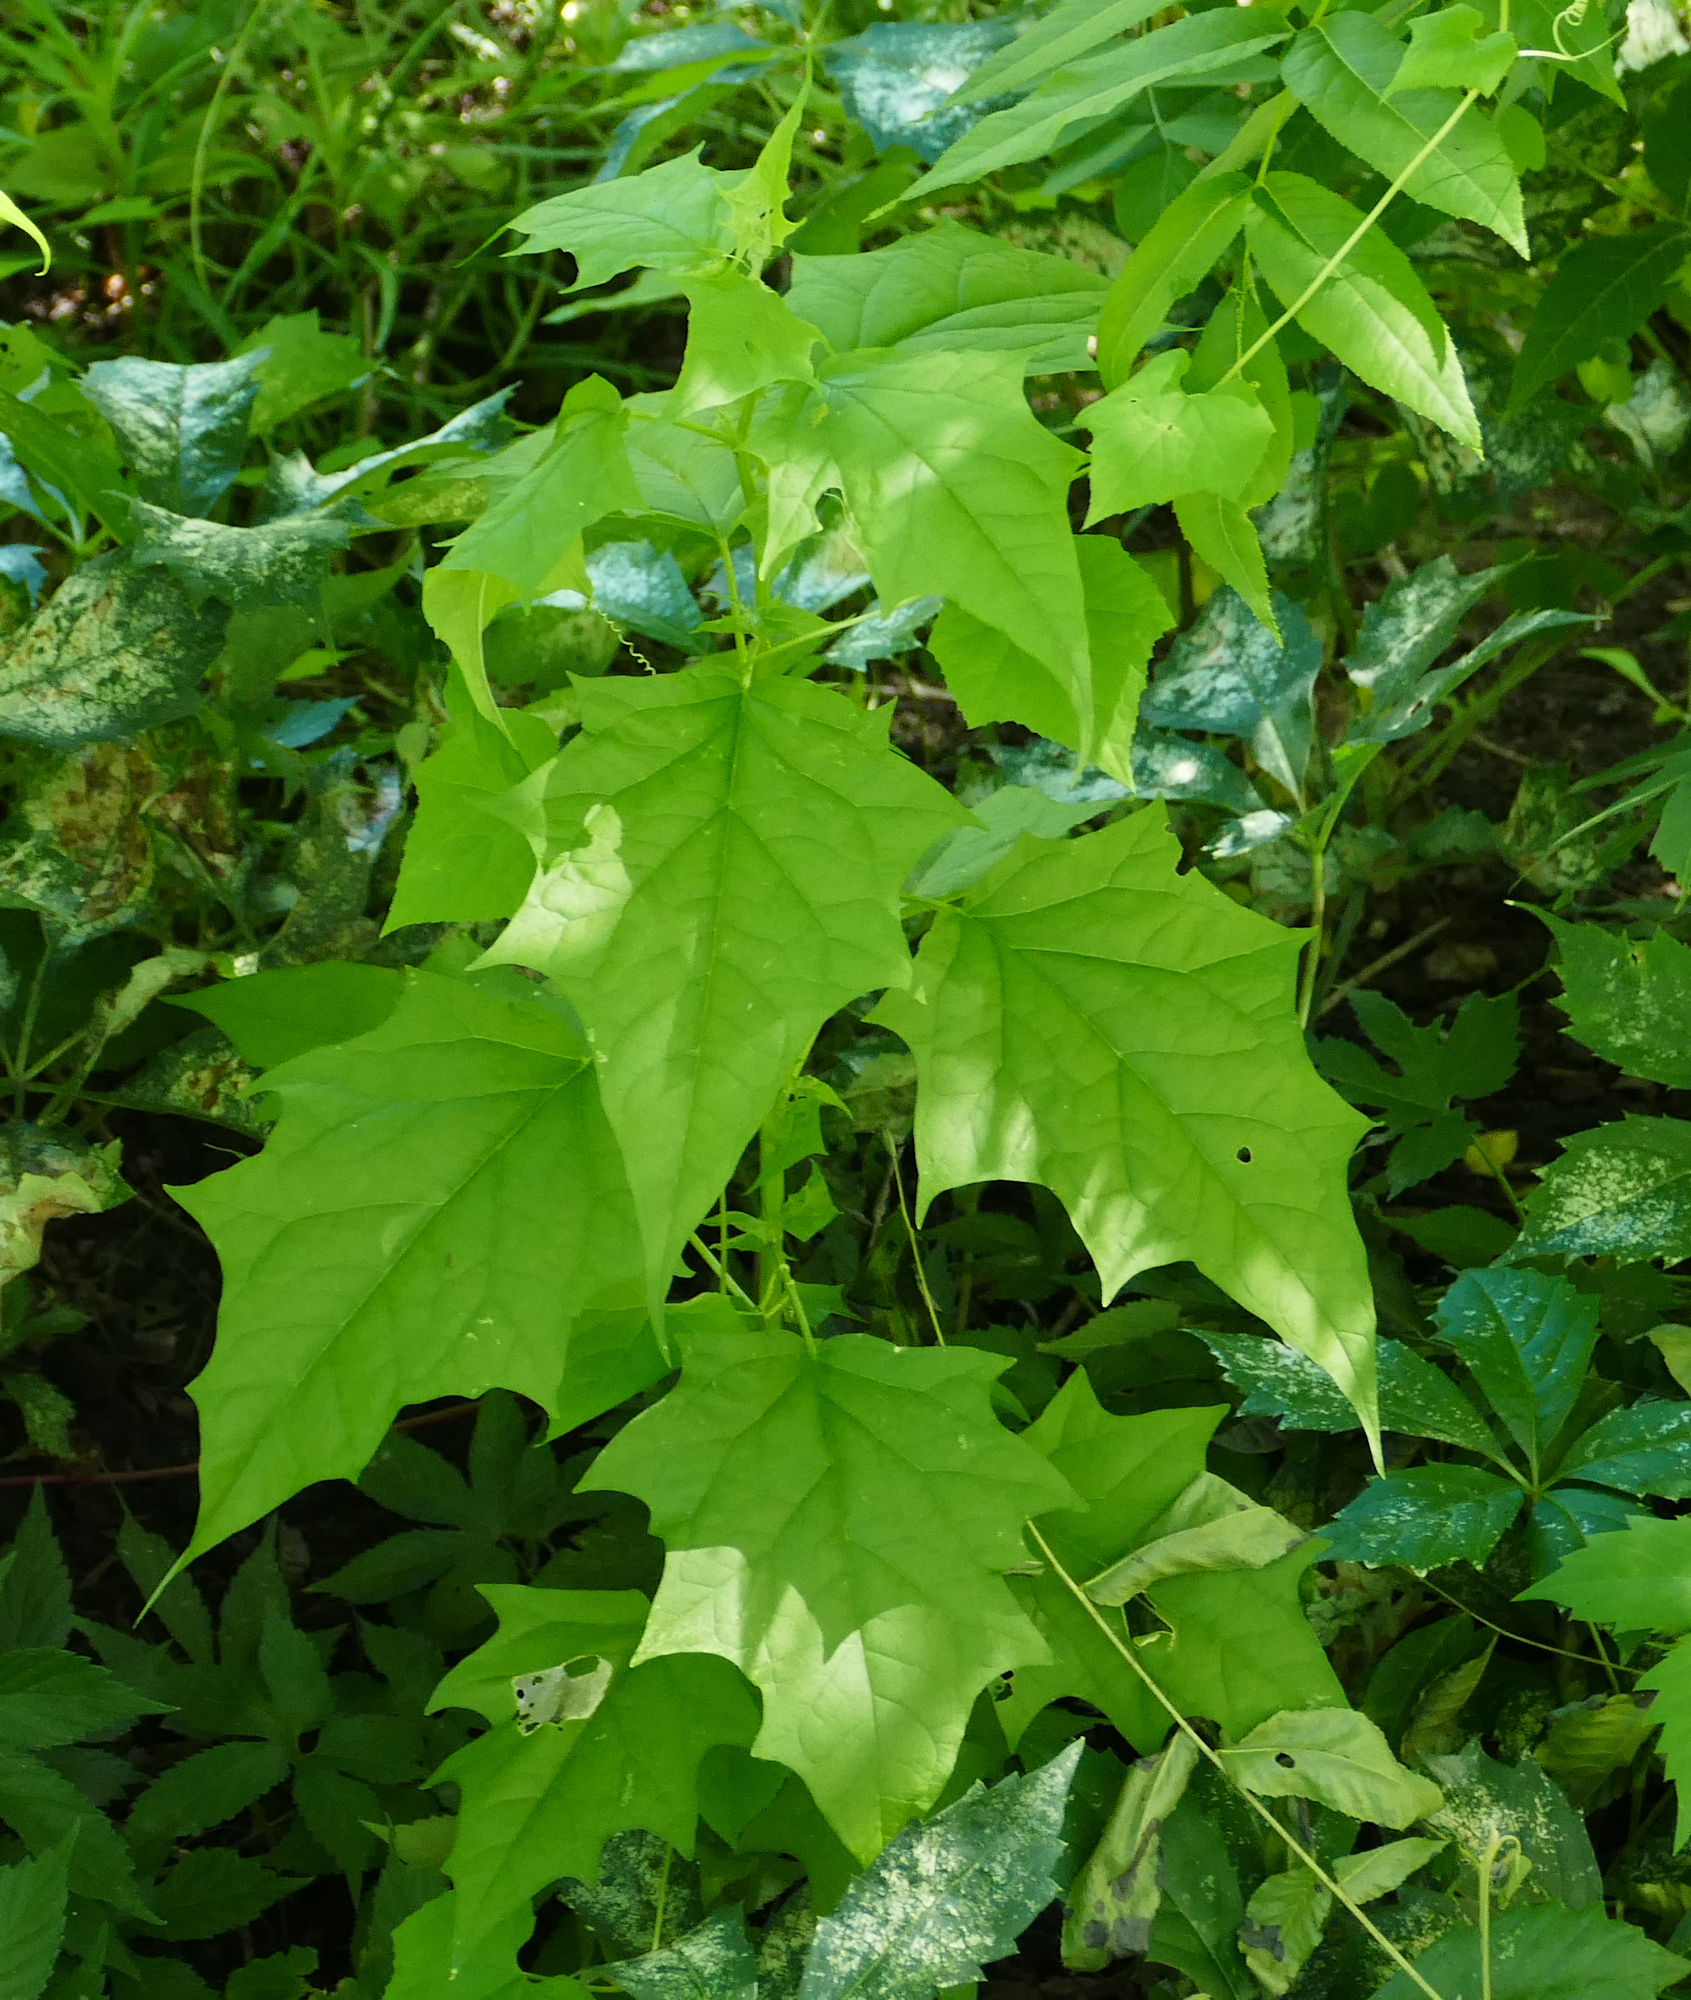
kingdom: Plantae
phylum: Tracheophyta
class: Magnoliopsida
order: Caryophyllales
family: Amaranthaceae
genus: Chenopodiastrum
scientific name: Chenopodiastrum simplex
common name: Large-seed goosefoot
